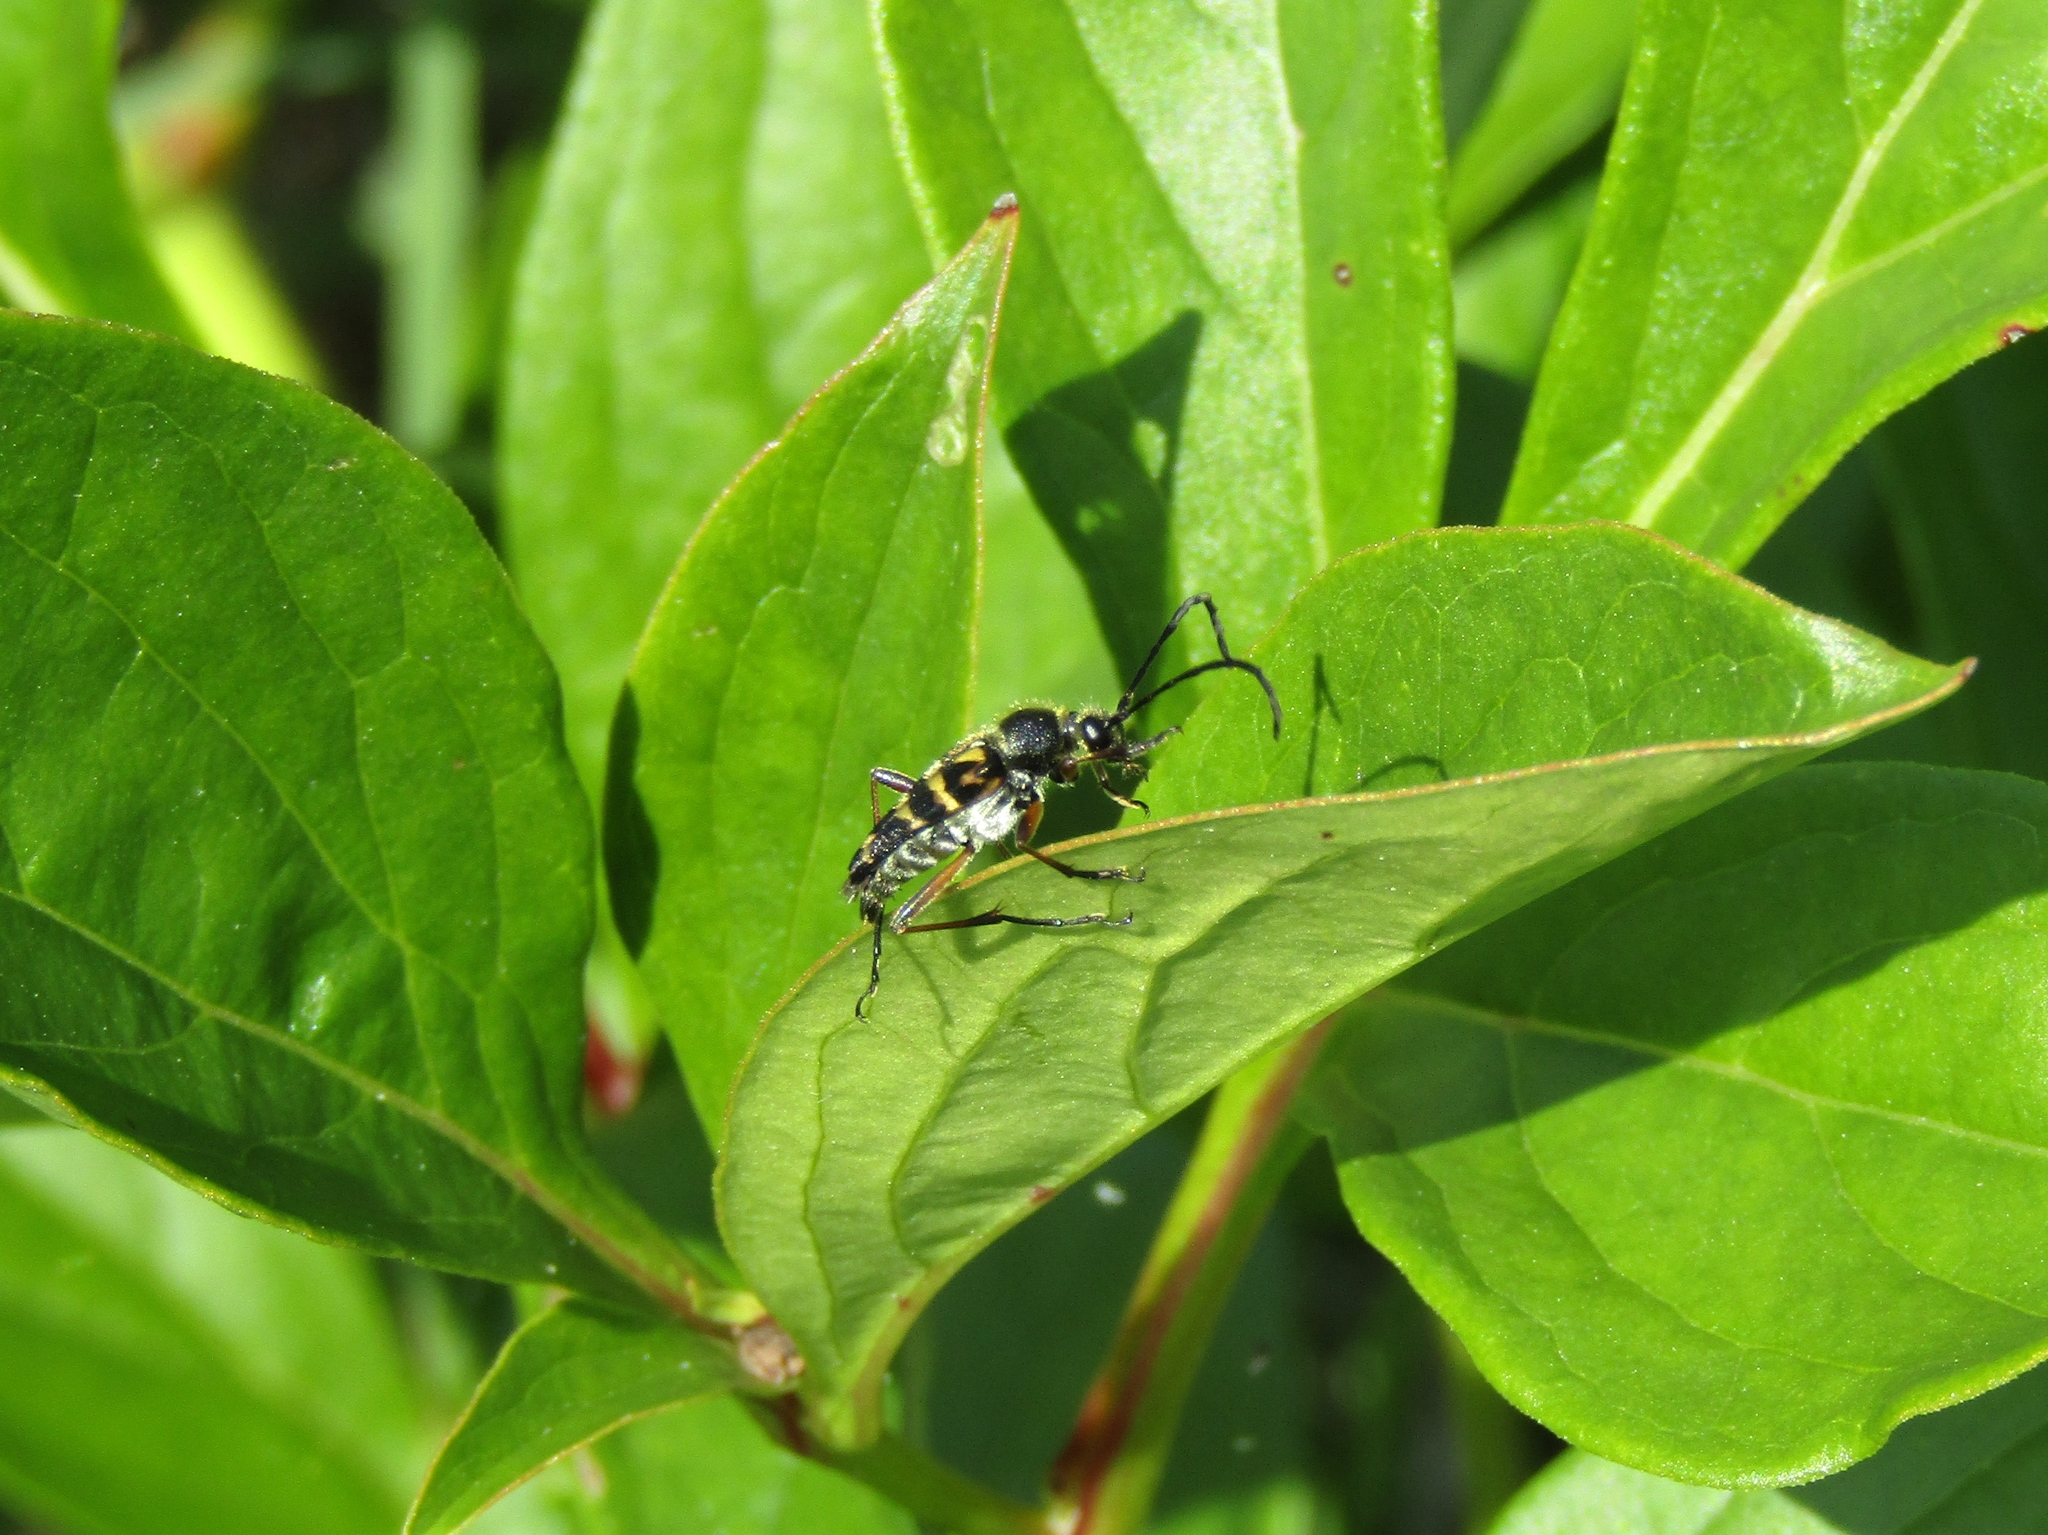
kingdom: Animalia
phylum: Arthropoda
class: Insecta
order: Coleoptera
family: Cerambycidae
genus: Typocerus
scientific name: Typocerus velutinus
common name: Banded longhorn beetle
